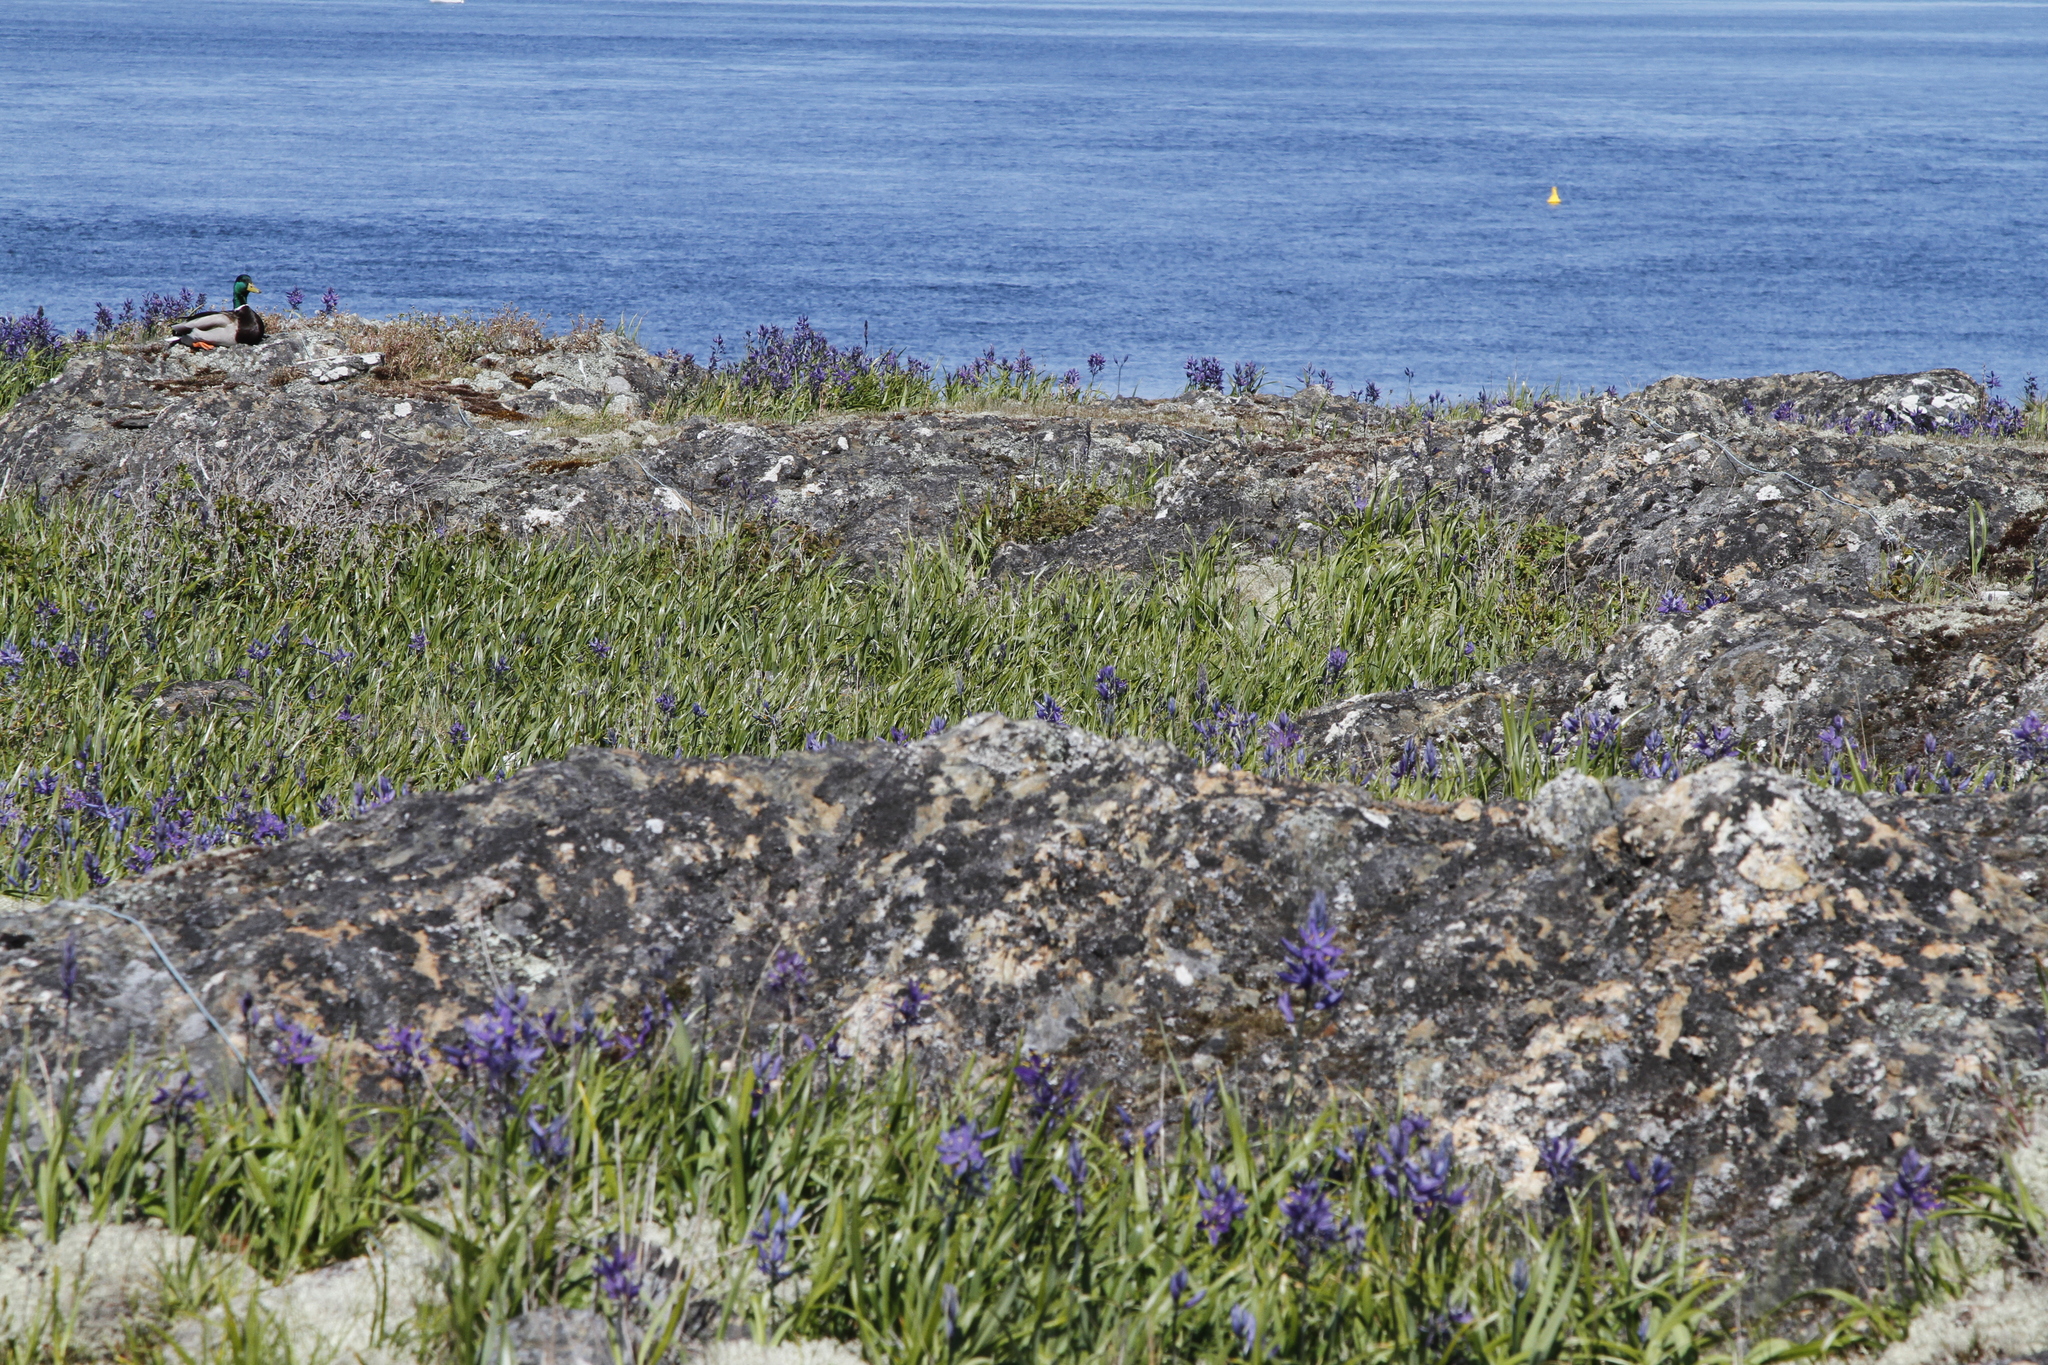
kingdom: Animalia
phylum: Chordata
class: Aves
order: Anseriformes
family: Anatidae
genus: Anas
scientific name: Anas platyrhynchos
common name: Mallard
